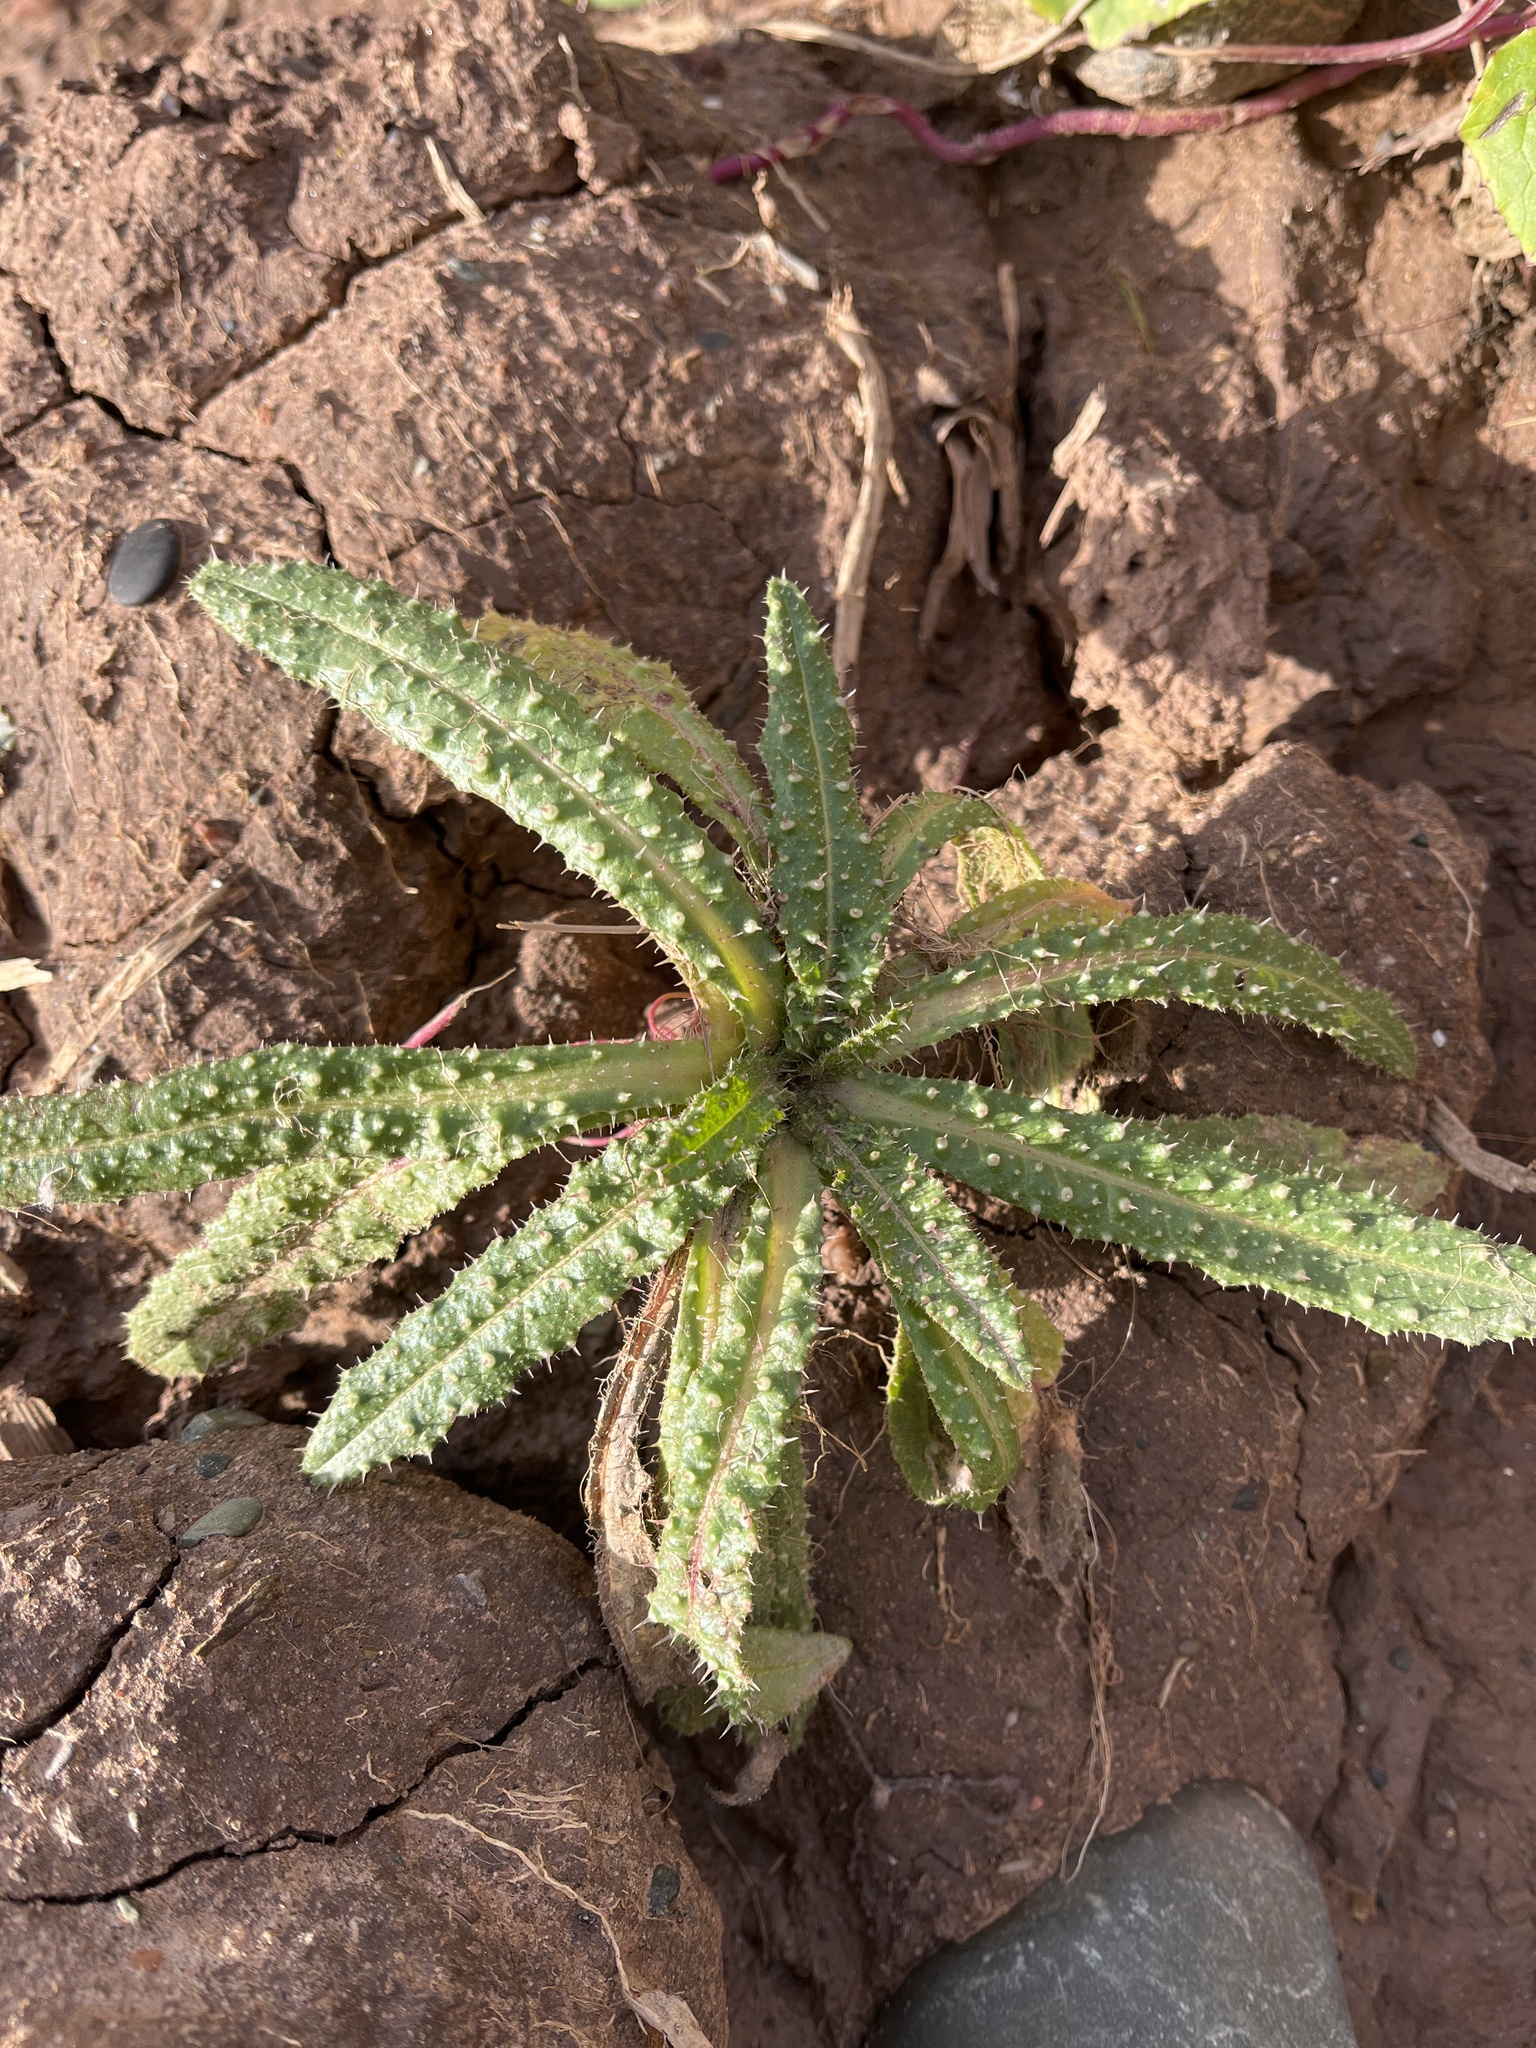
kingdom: Plantae
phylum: Tracheophyta
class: Magnoliopsida
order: Asterales
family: Asteraceae
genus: Helminthotheca
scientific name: Helminthotheca echioides
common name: Ox-tongue
